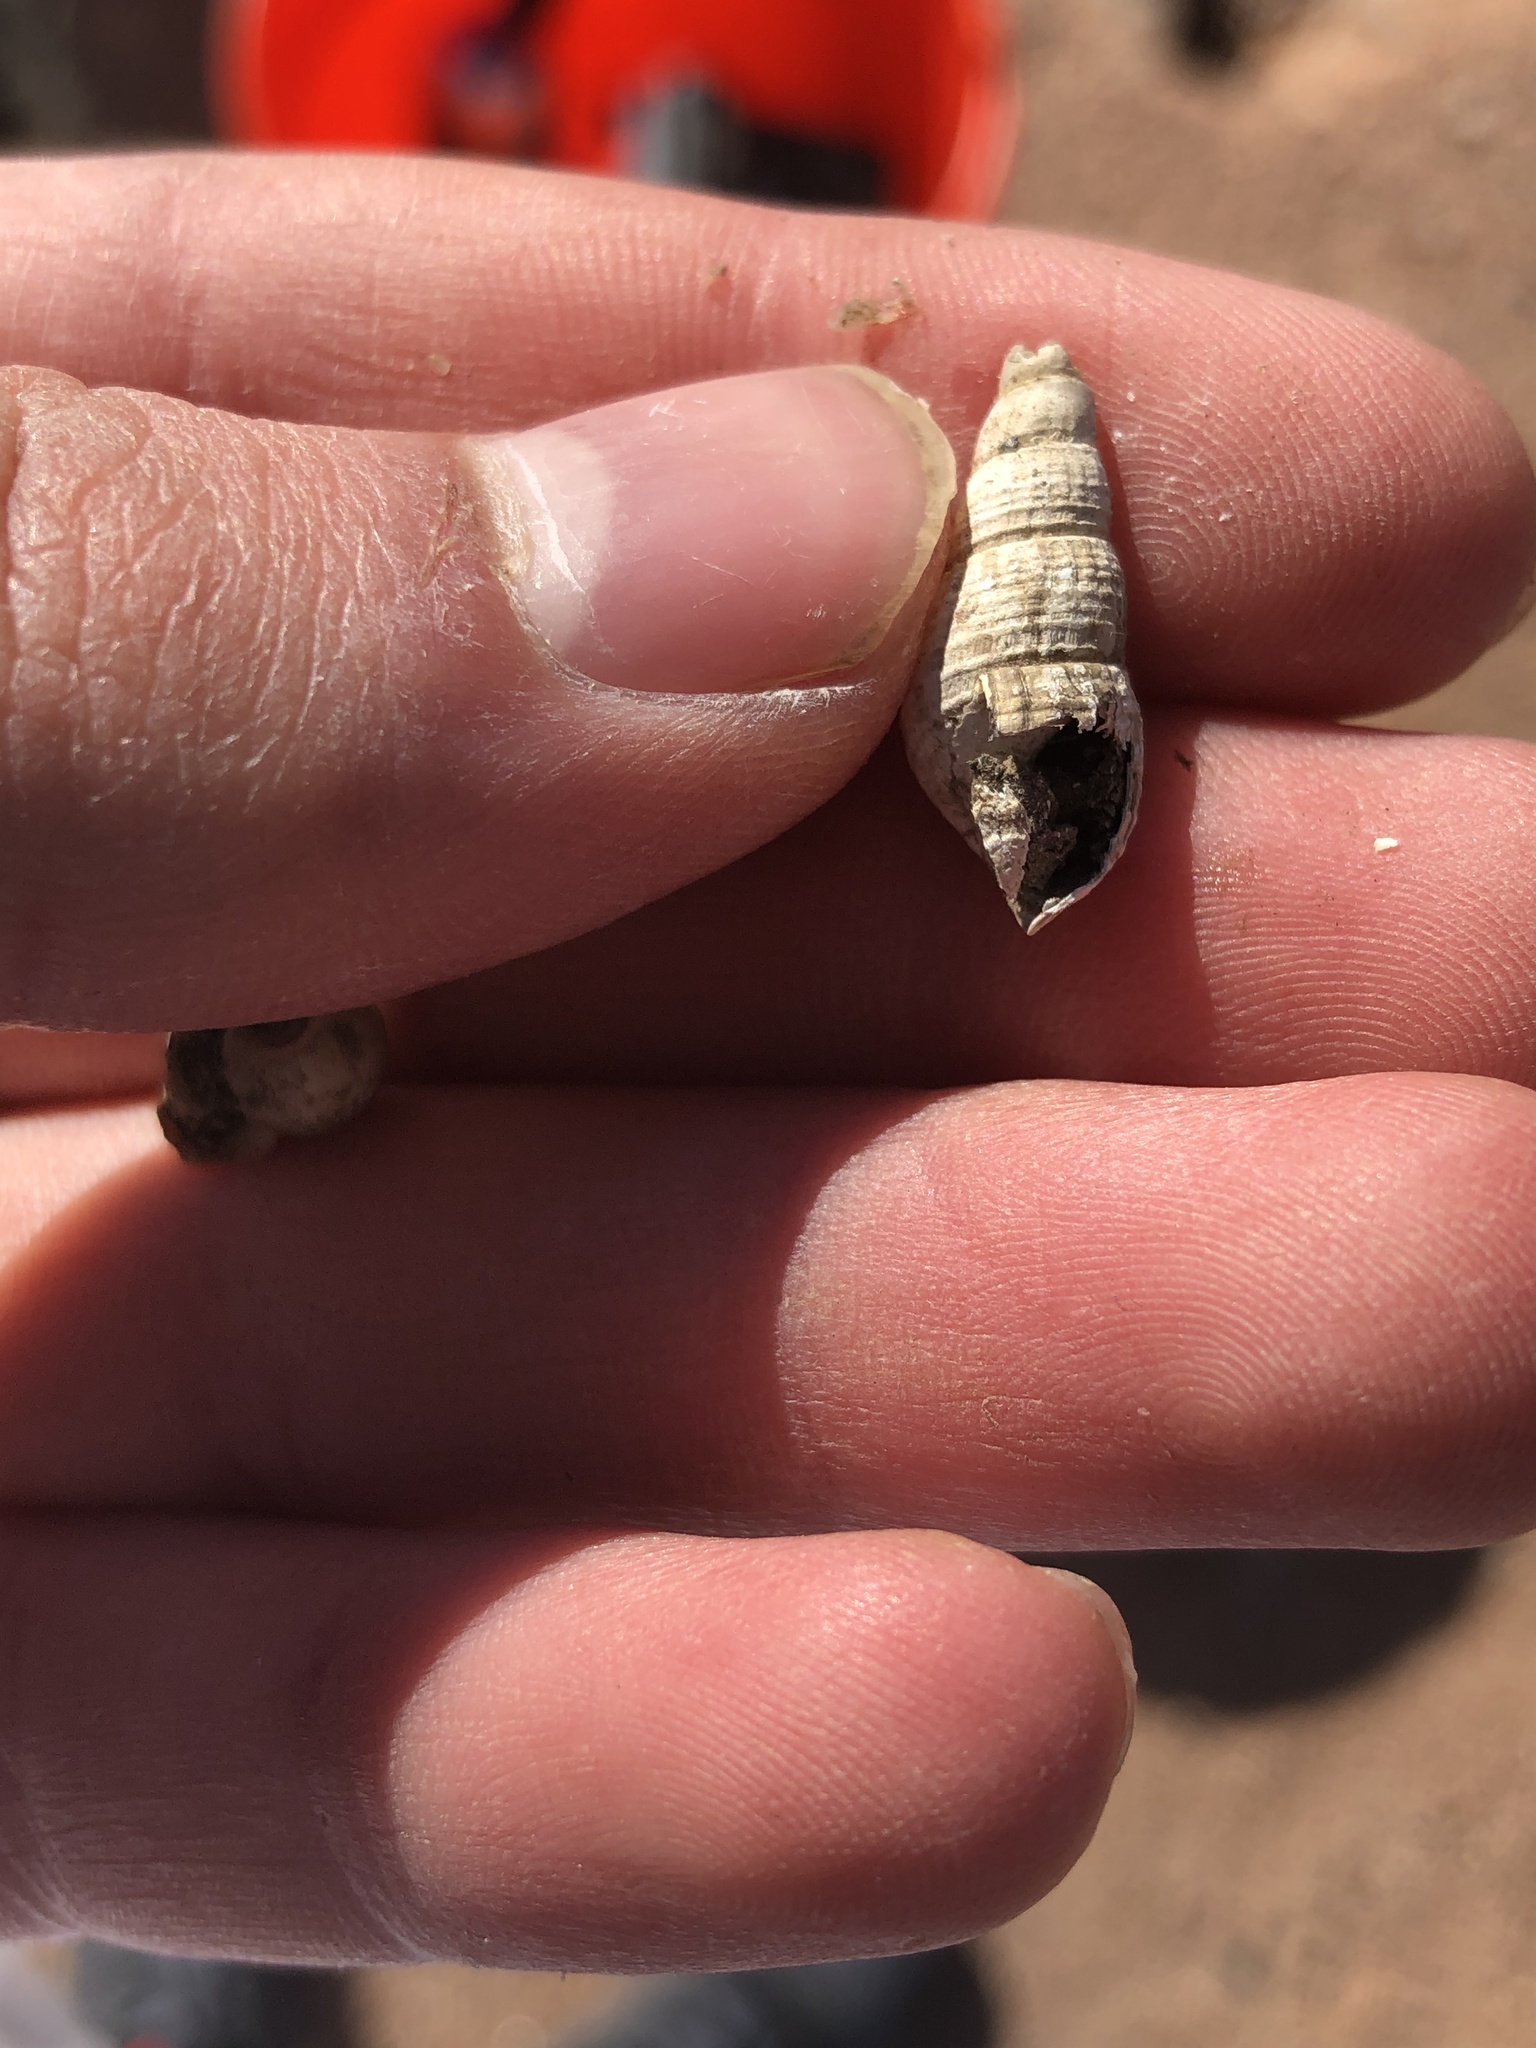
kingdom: Animalia
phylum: Mollusca
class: Gastropoda
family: Thiaridae
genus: Melanoides
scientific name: Melanoides tuberculata
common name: Red-rim melania
